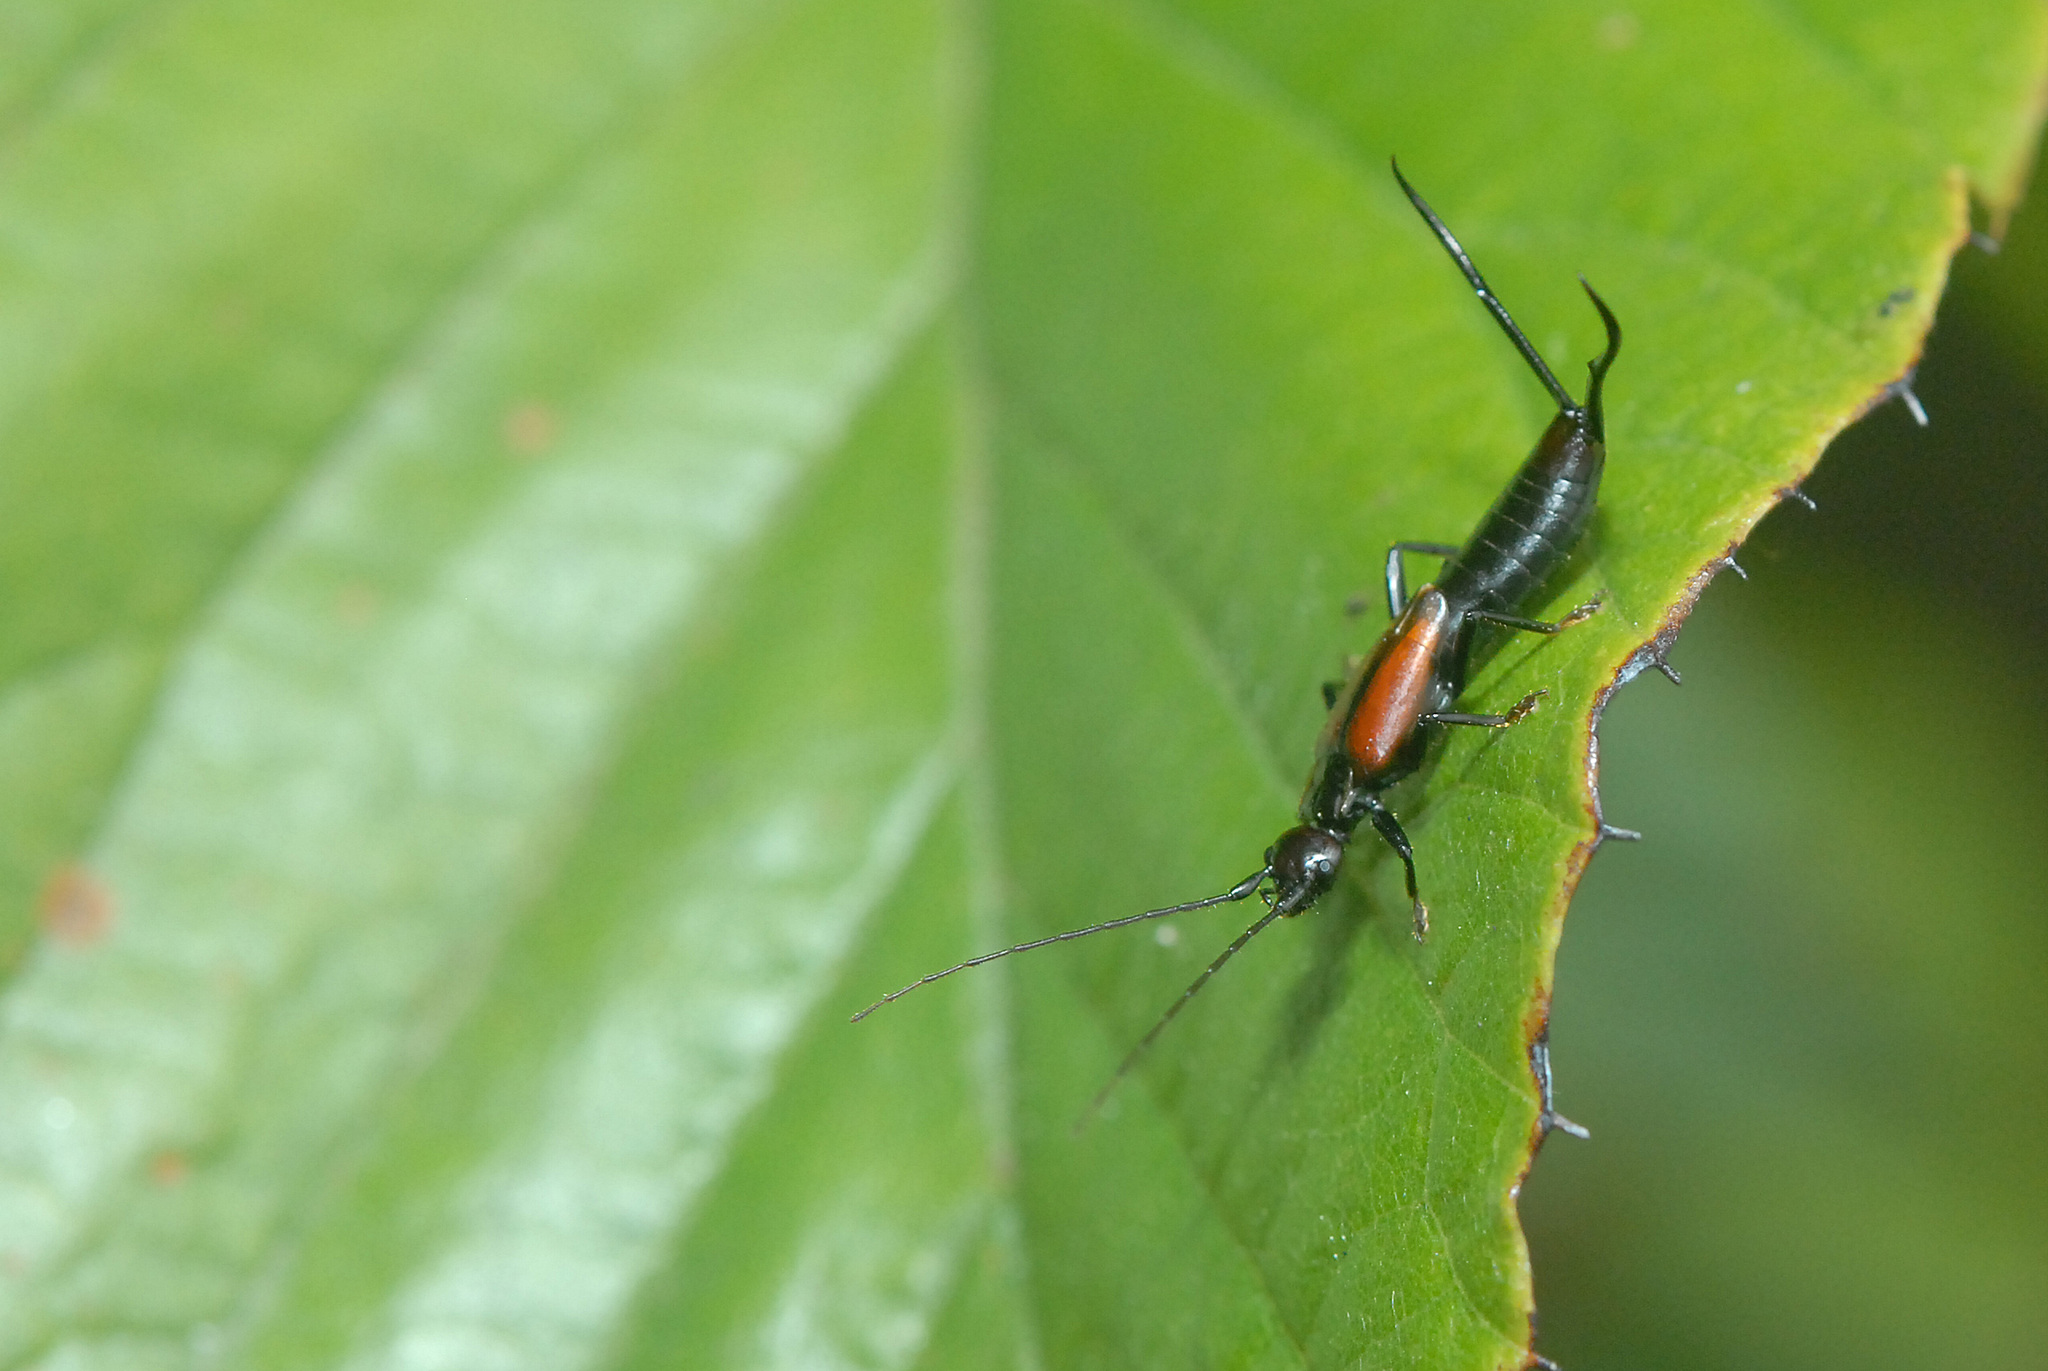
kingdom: Animalia
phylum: Arthropoda
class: Insecta
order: Dermaptera
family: Forficulidae
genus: Timomenus
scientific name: Timomenus komarovi
